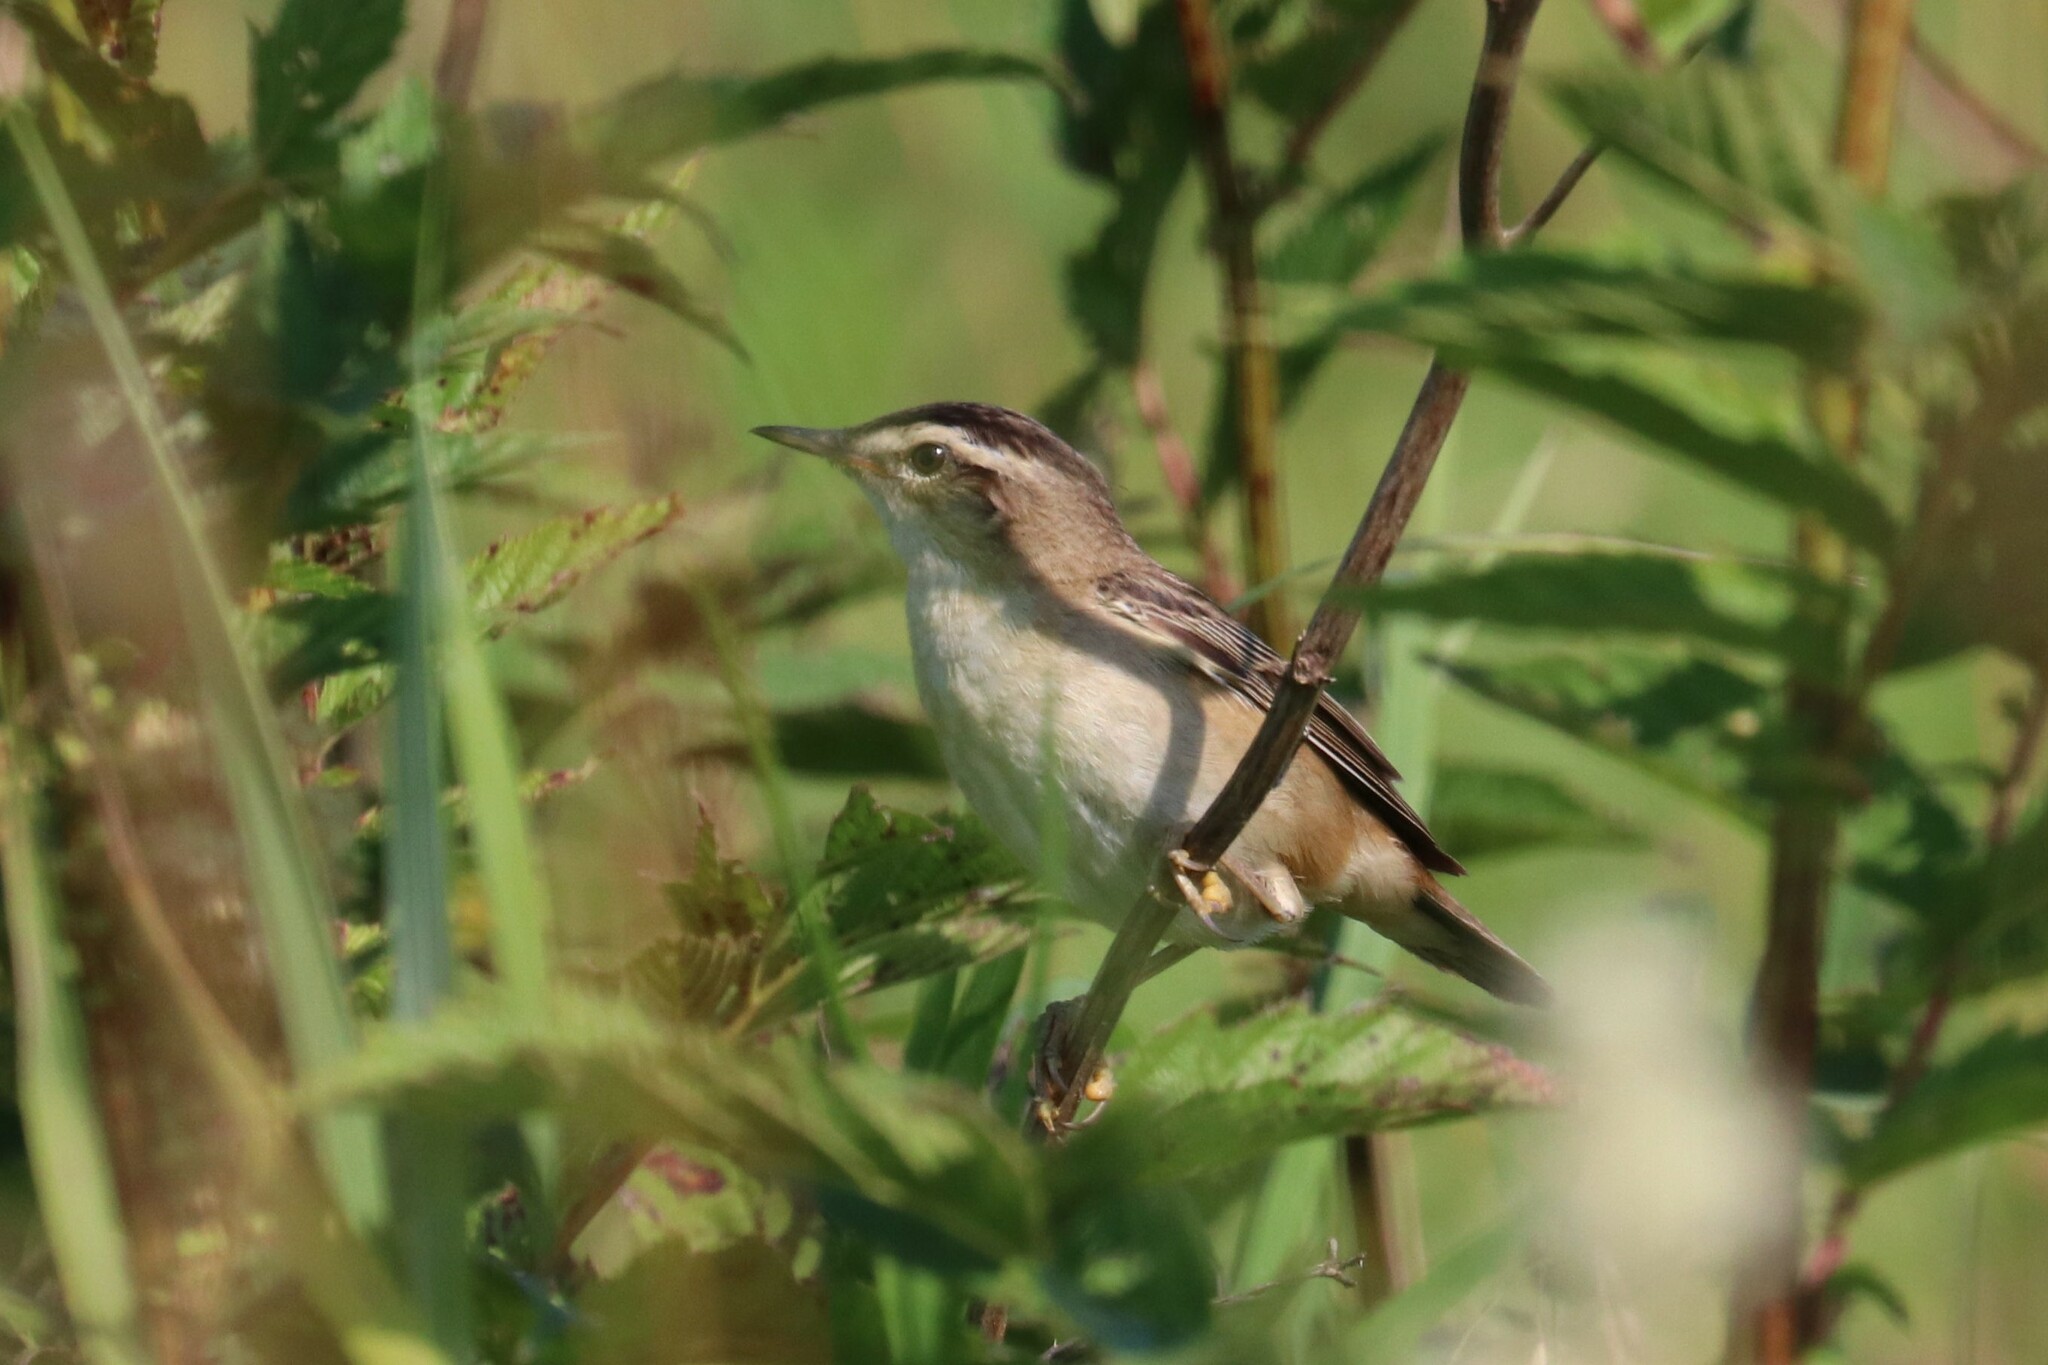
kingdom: Animalia
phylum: Chordata
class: Aves
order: Passeriformes
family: Acrocephalidae
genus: Acrocephalus
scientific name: Acrocephalus schoenobaenus
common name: Sedge warbler
